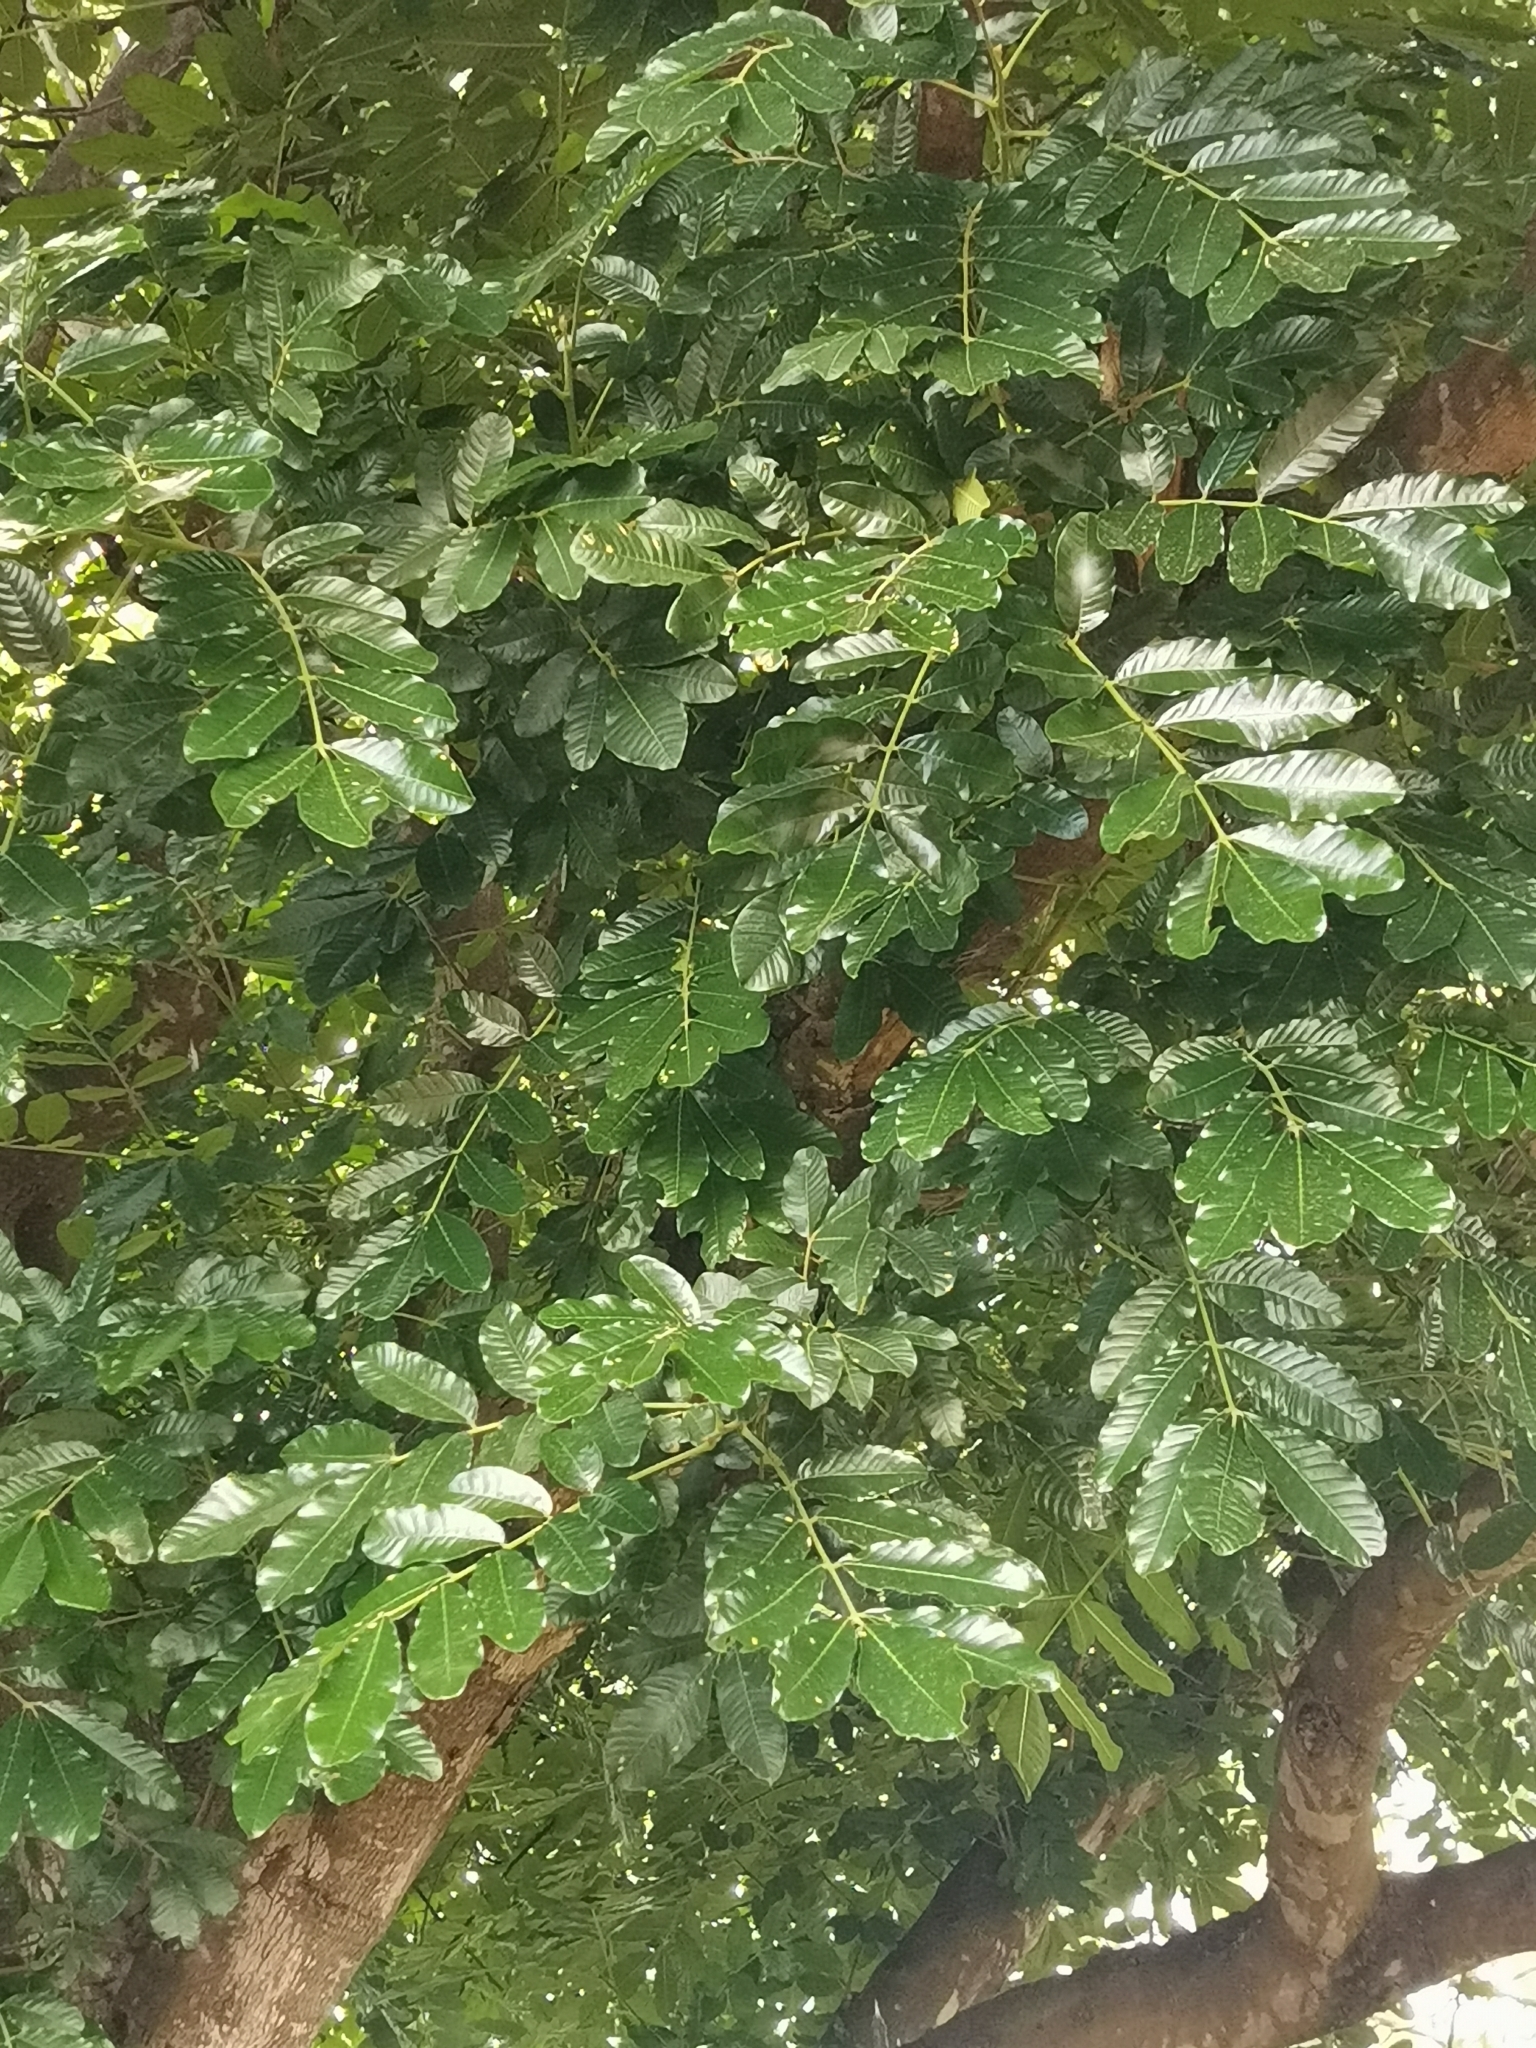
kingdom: Plantae
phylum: Tracheophyta
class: Magnoliopsida
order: Sapindales
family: Meliaceae
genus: Trichilia
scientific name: Trichilia emetica
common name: Christmas-bells
